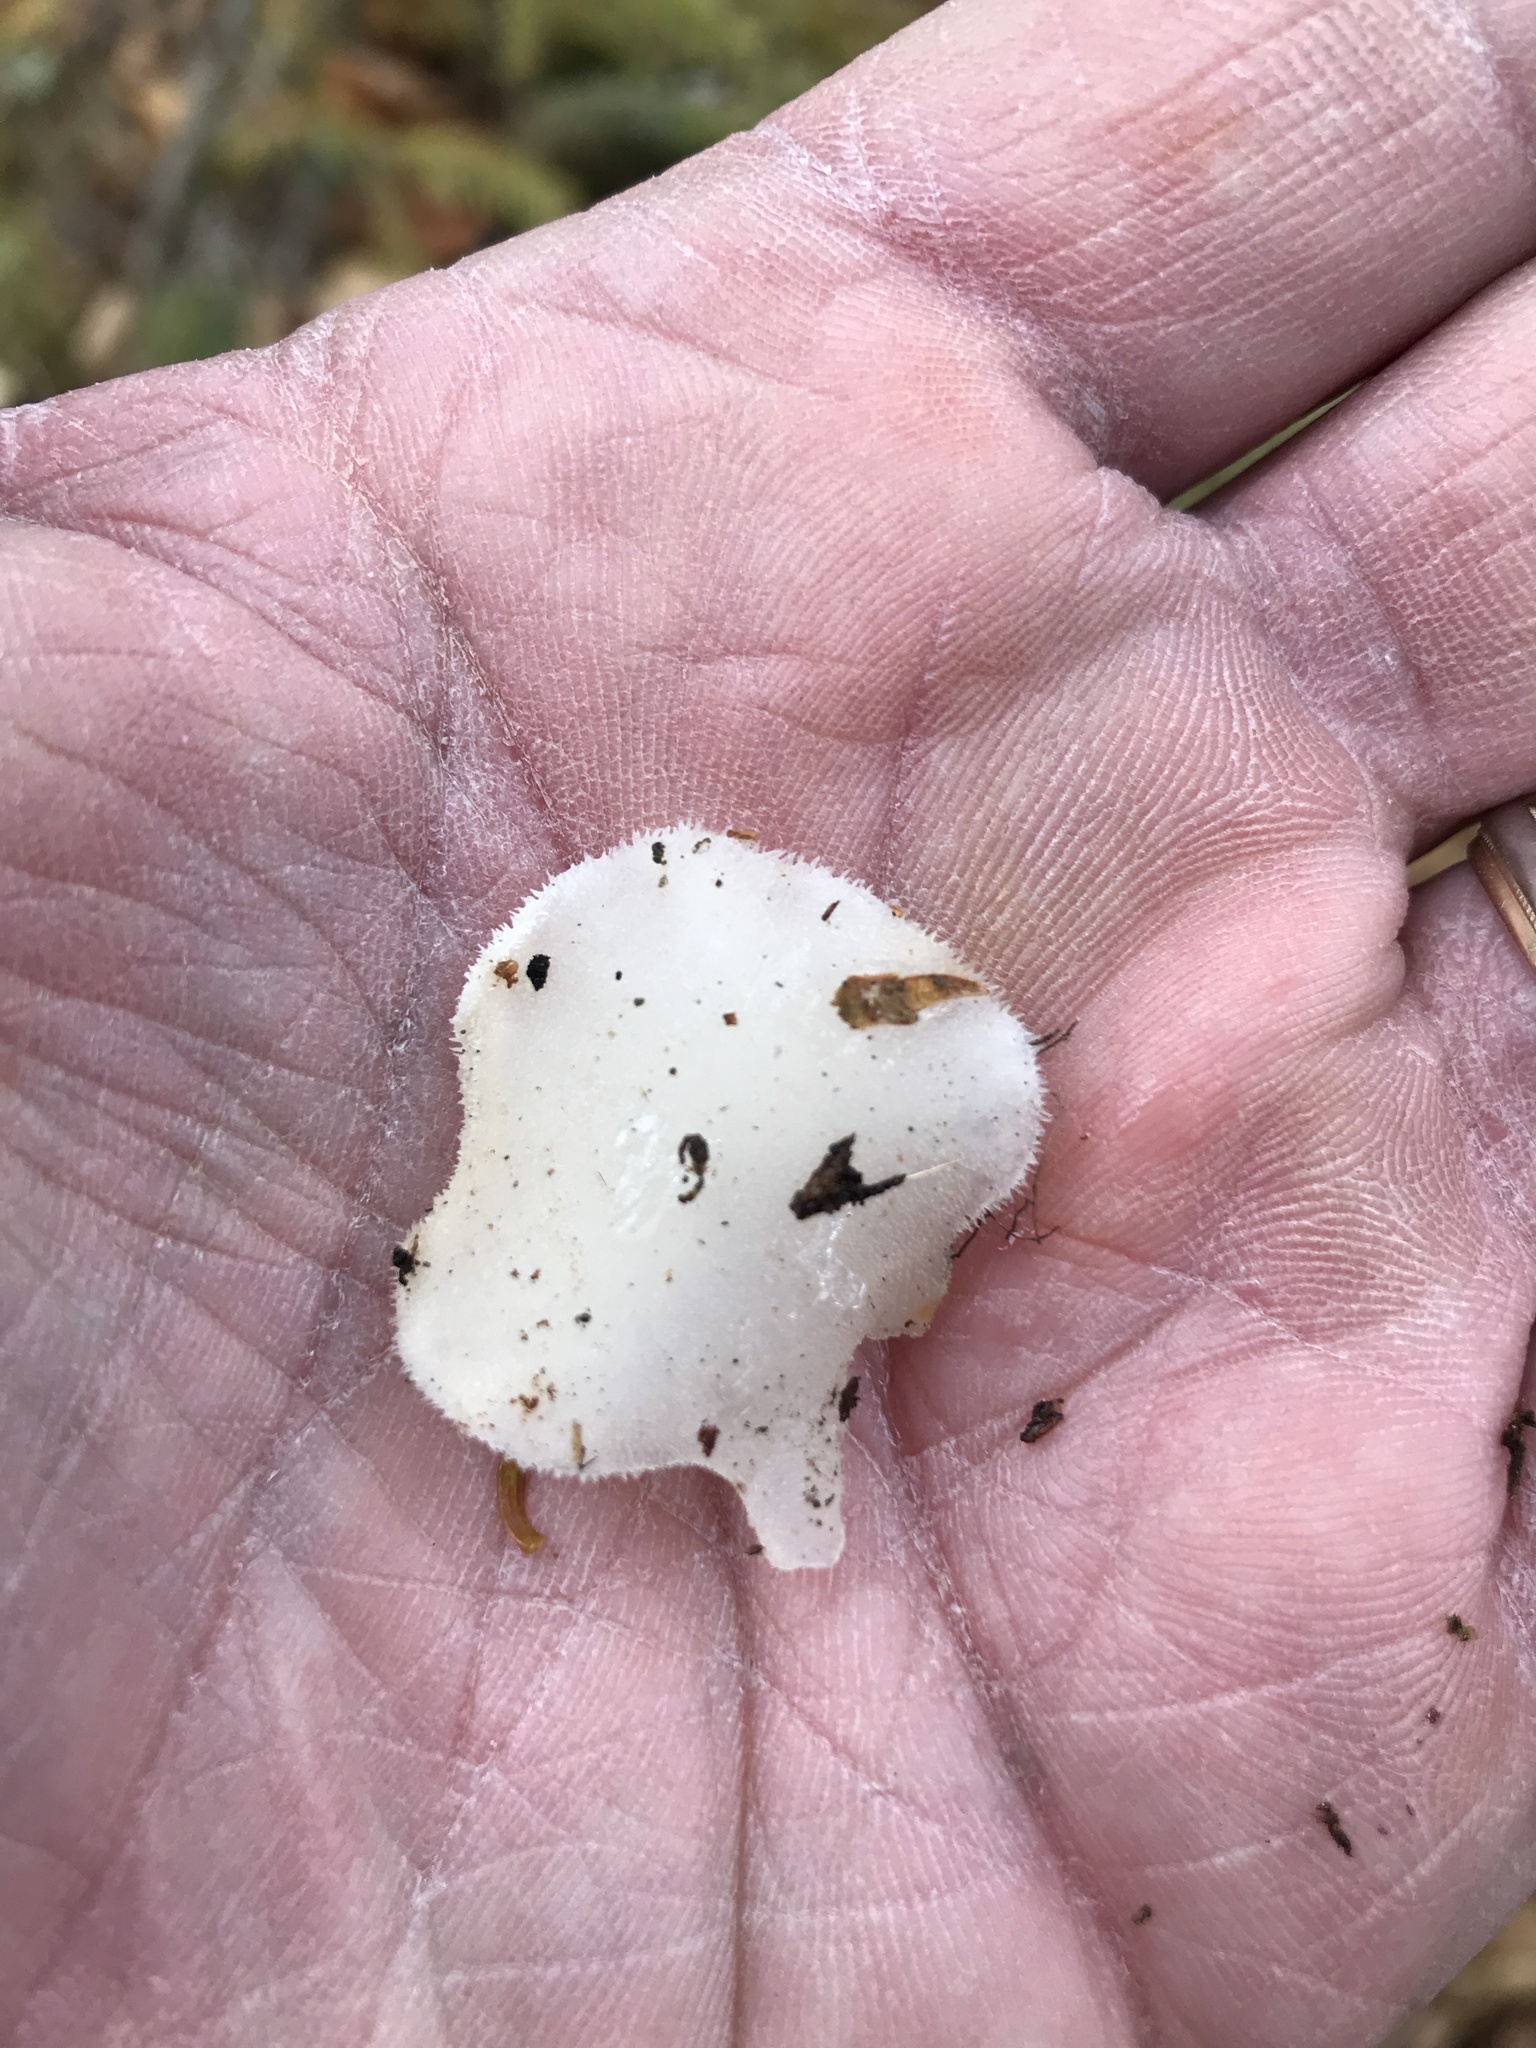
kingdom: Fungi
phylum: Basidiomycota
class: Agaricomycetes
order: Auriculariales
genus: Pseudohydnum
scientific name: Pseudohydnum gelatinosum
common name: Jelly tongue
